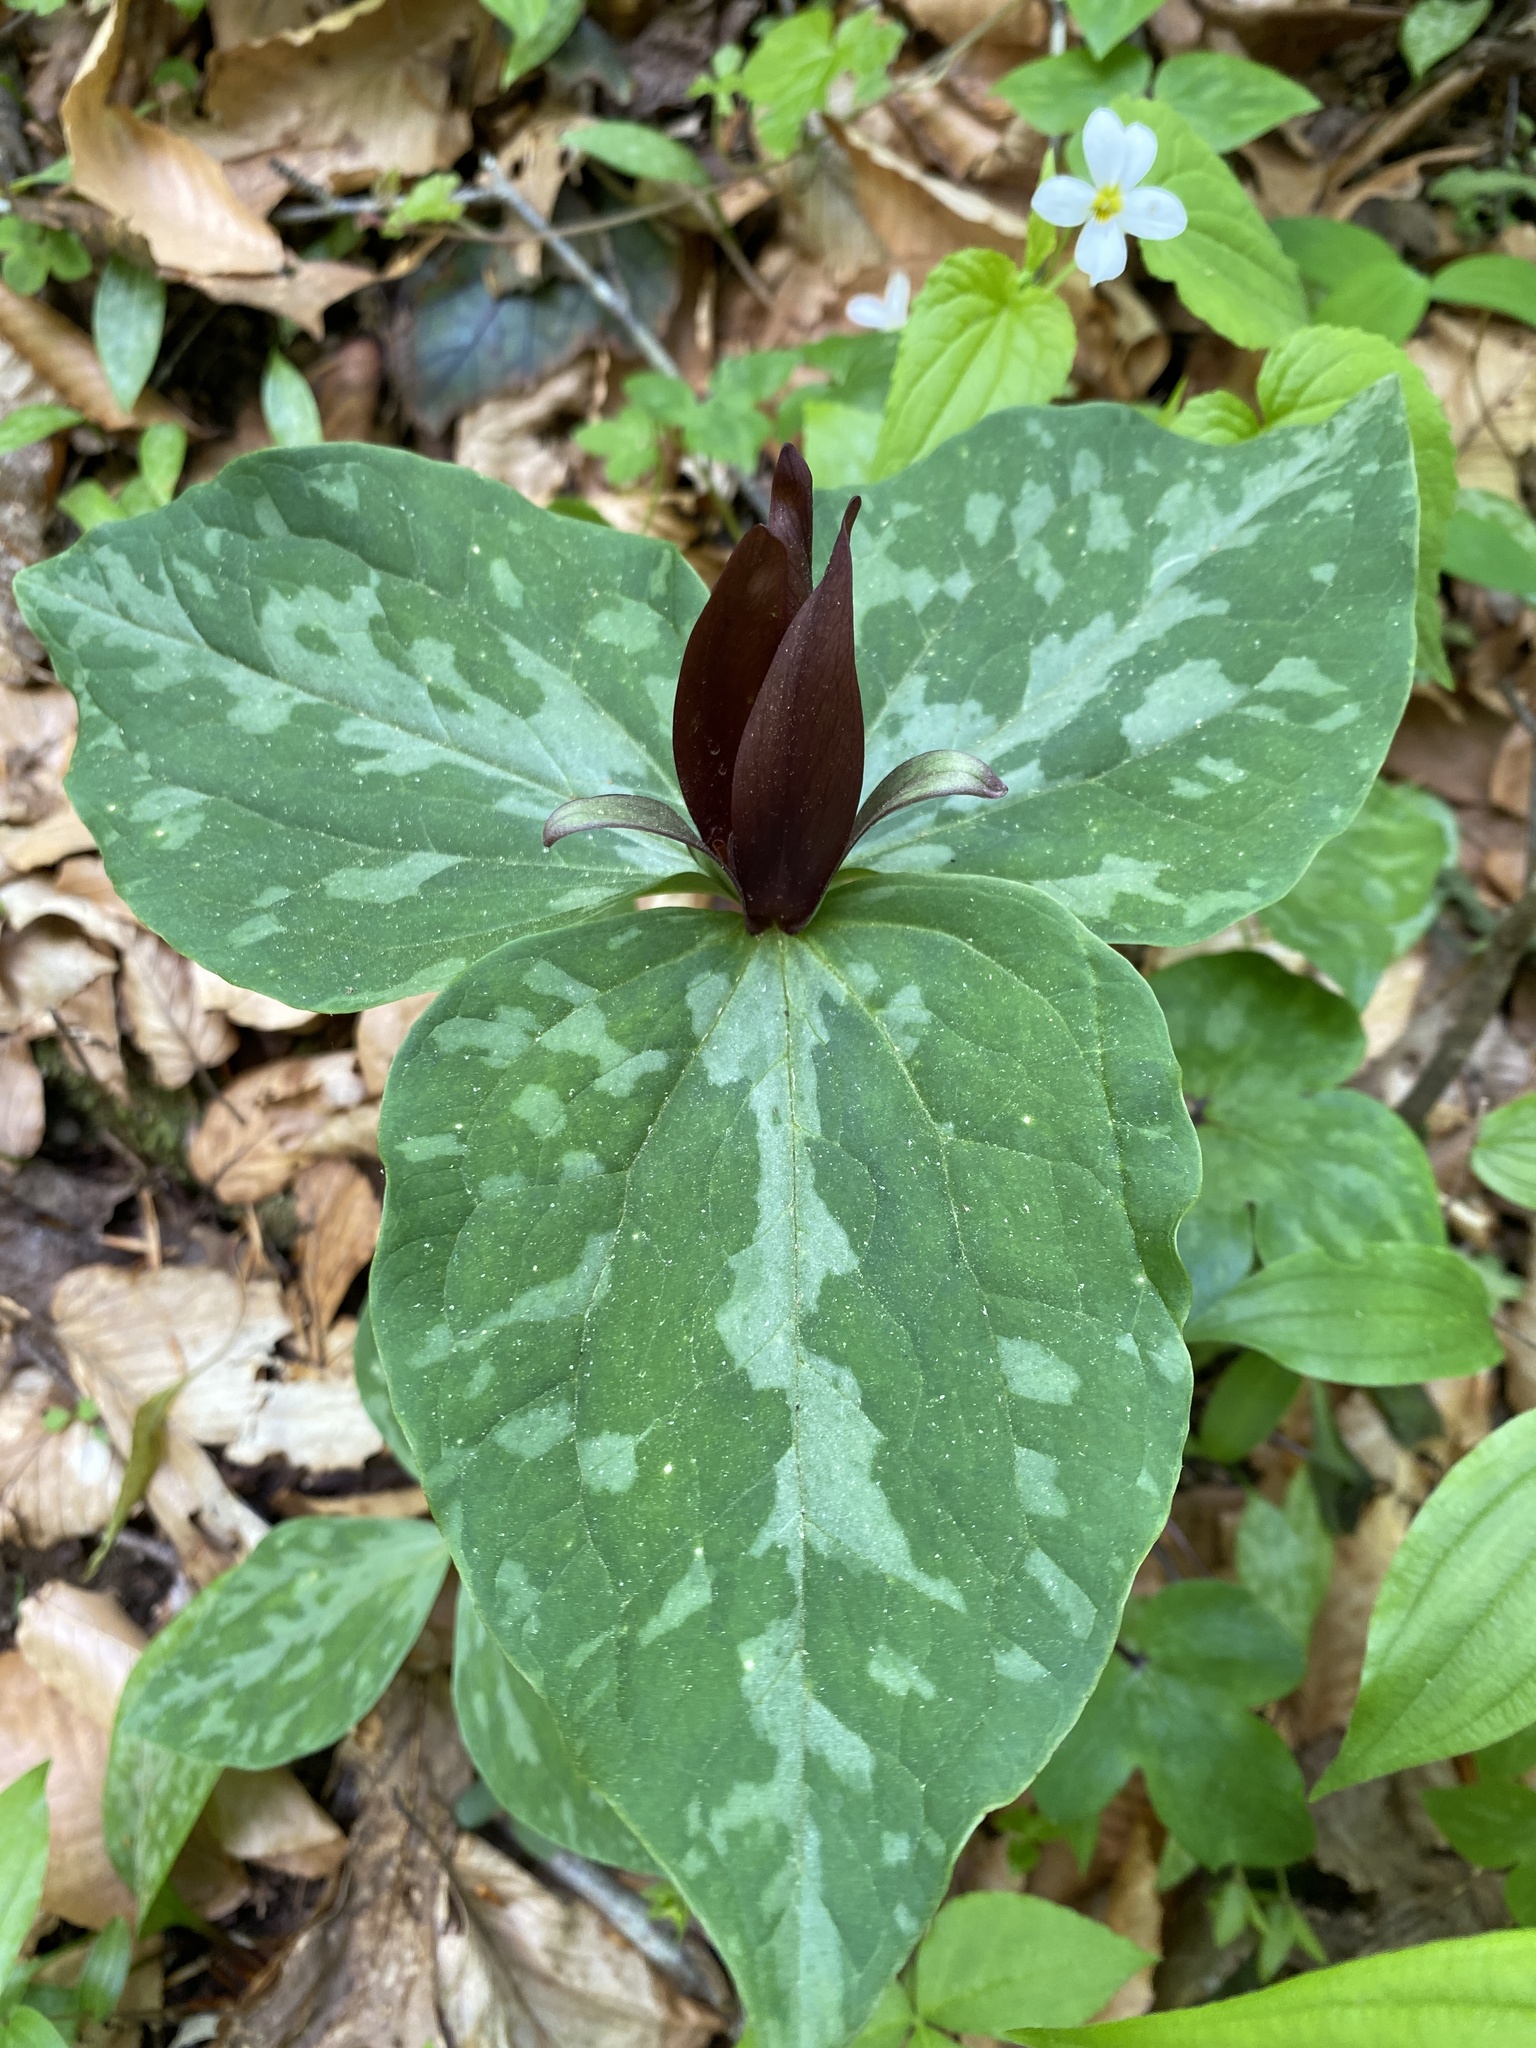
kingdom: Plantae
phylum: Tracheophyta
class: Liliopsida
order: Liliales
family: Melanthiaceae
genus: Trillium
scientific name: Trillium cuneatum
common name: Cuneate trillium
